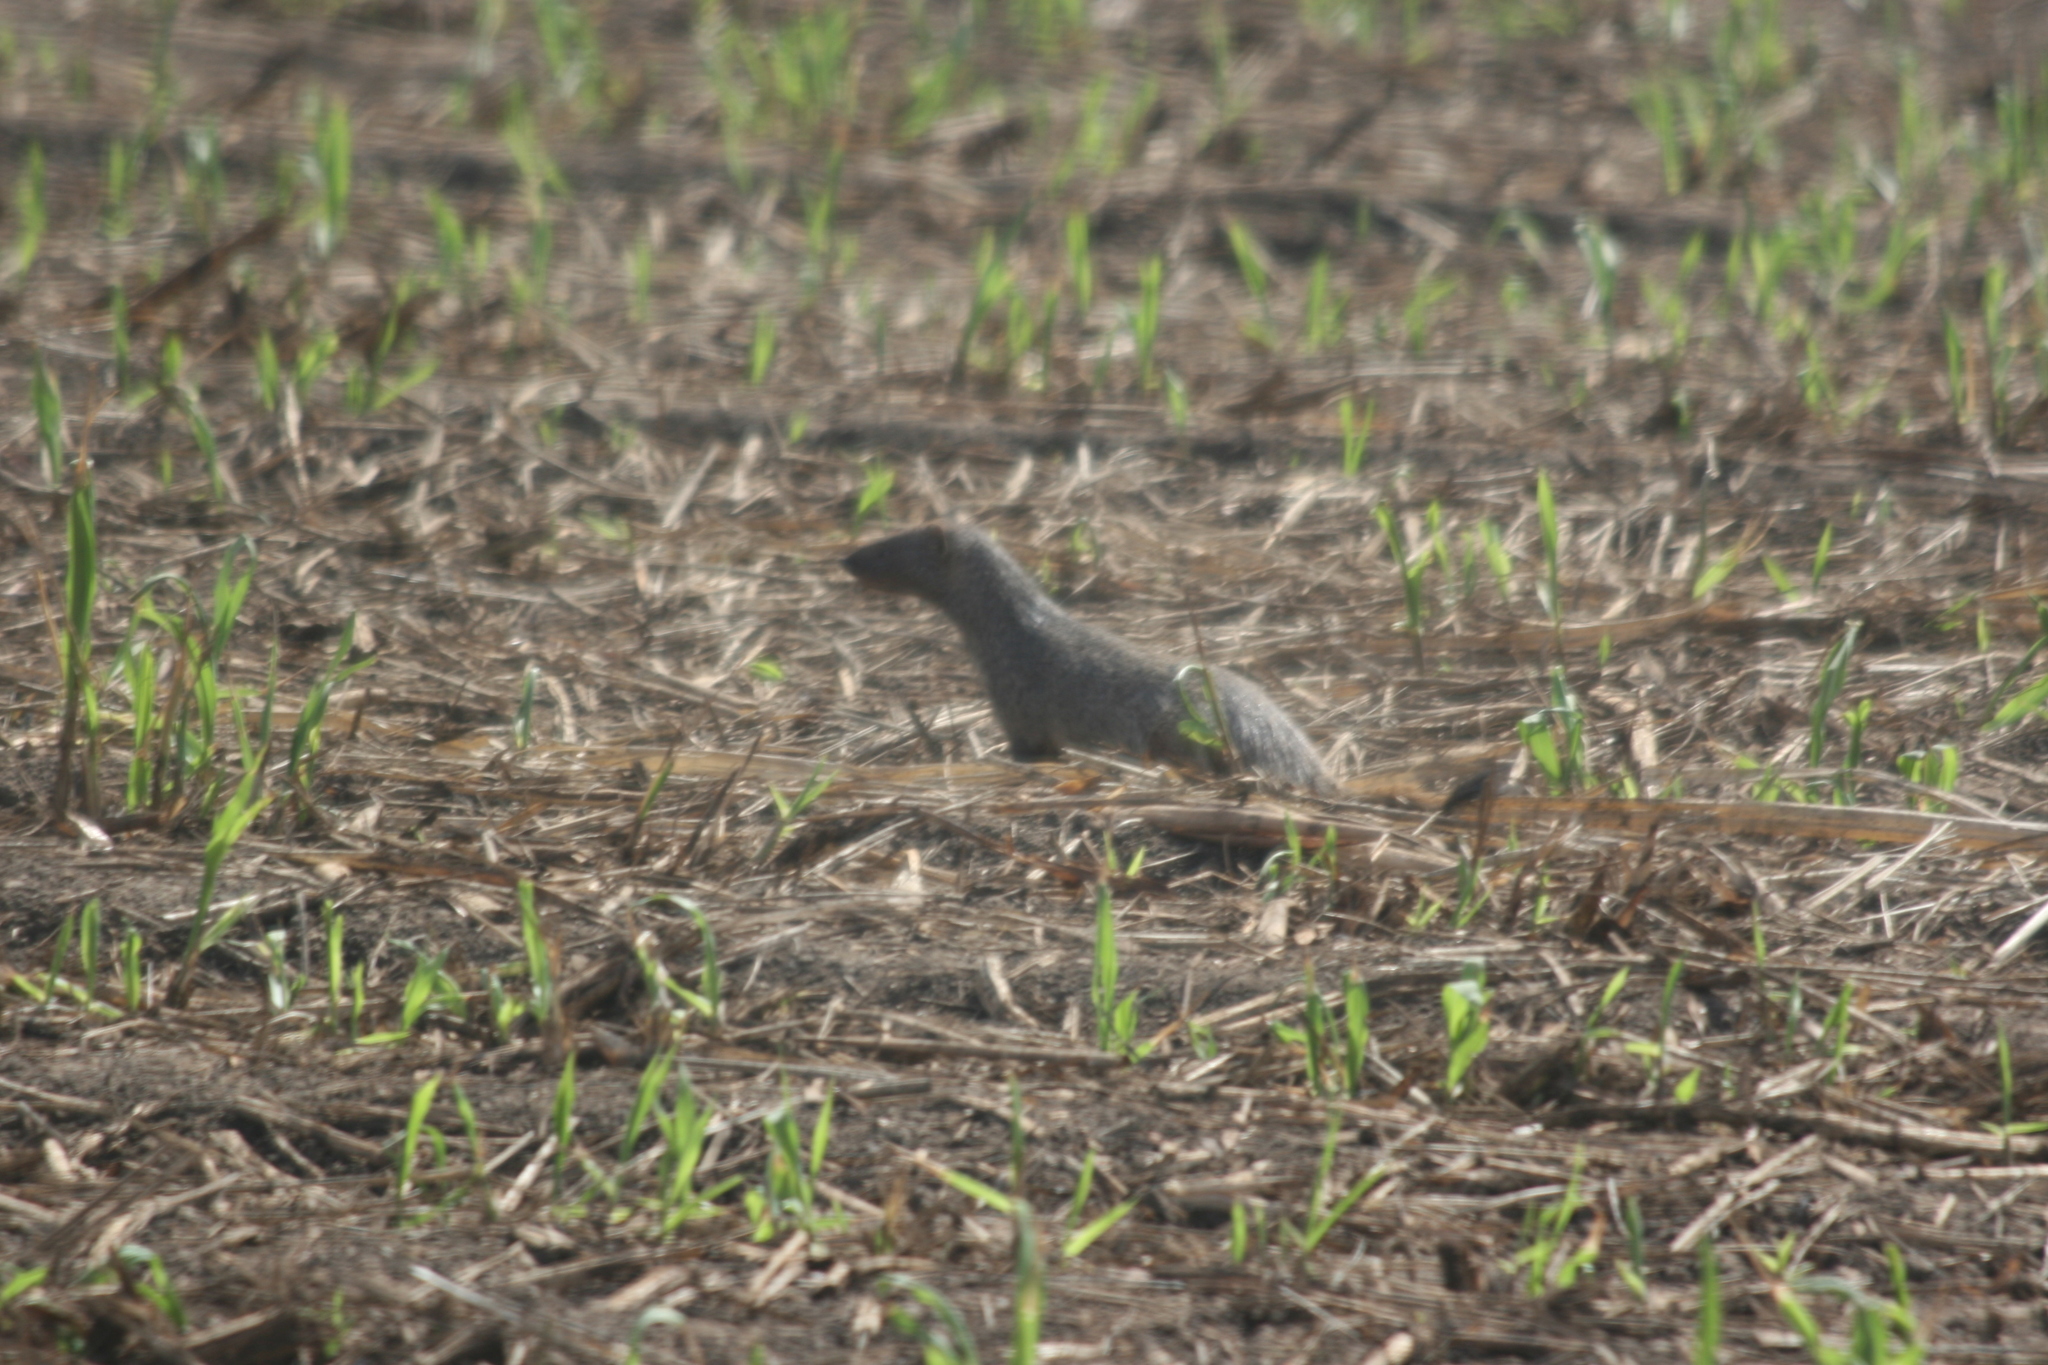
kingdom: Animalia
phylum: Chordata
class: Mammalia
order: Carnivora
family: Herpestidae
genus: Herpestes
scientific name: Herpestes ichneumon
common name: Egyptian mongoose
